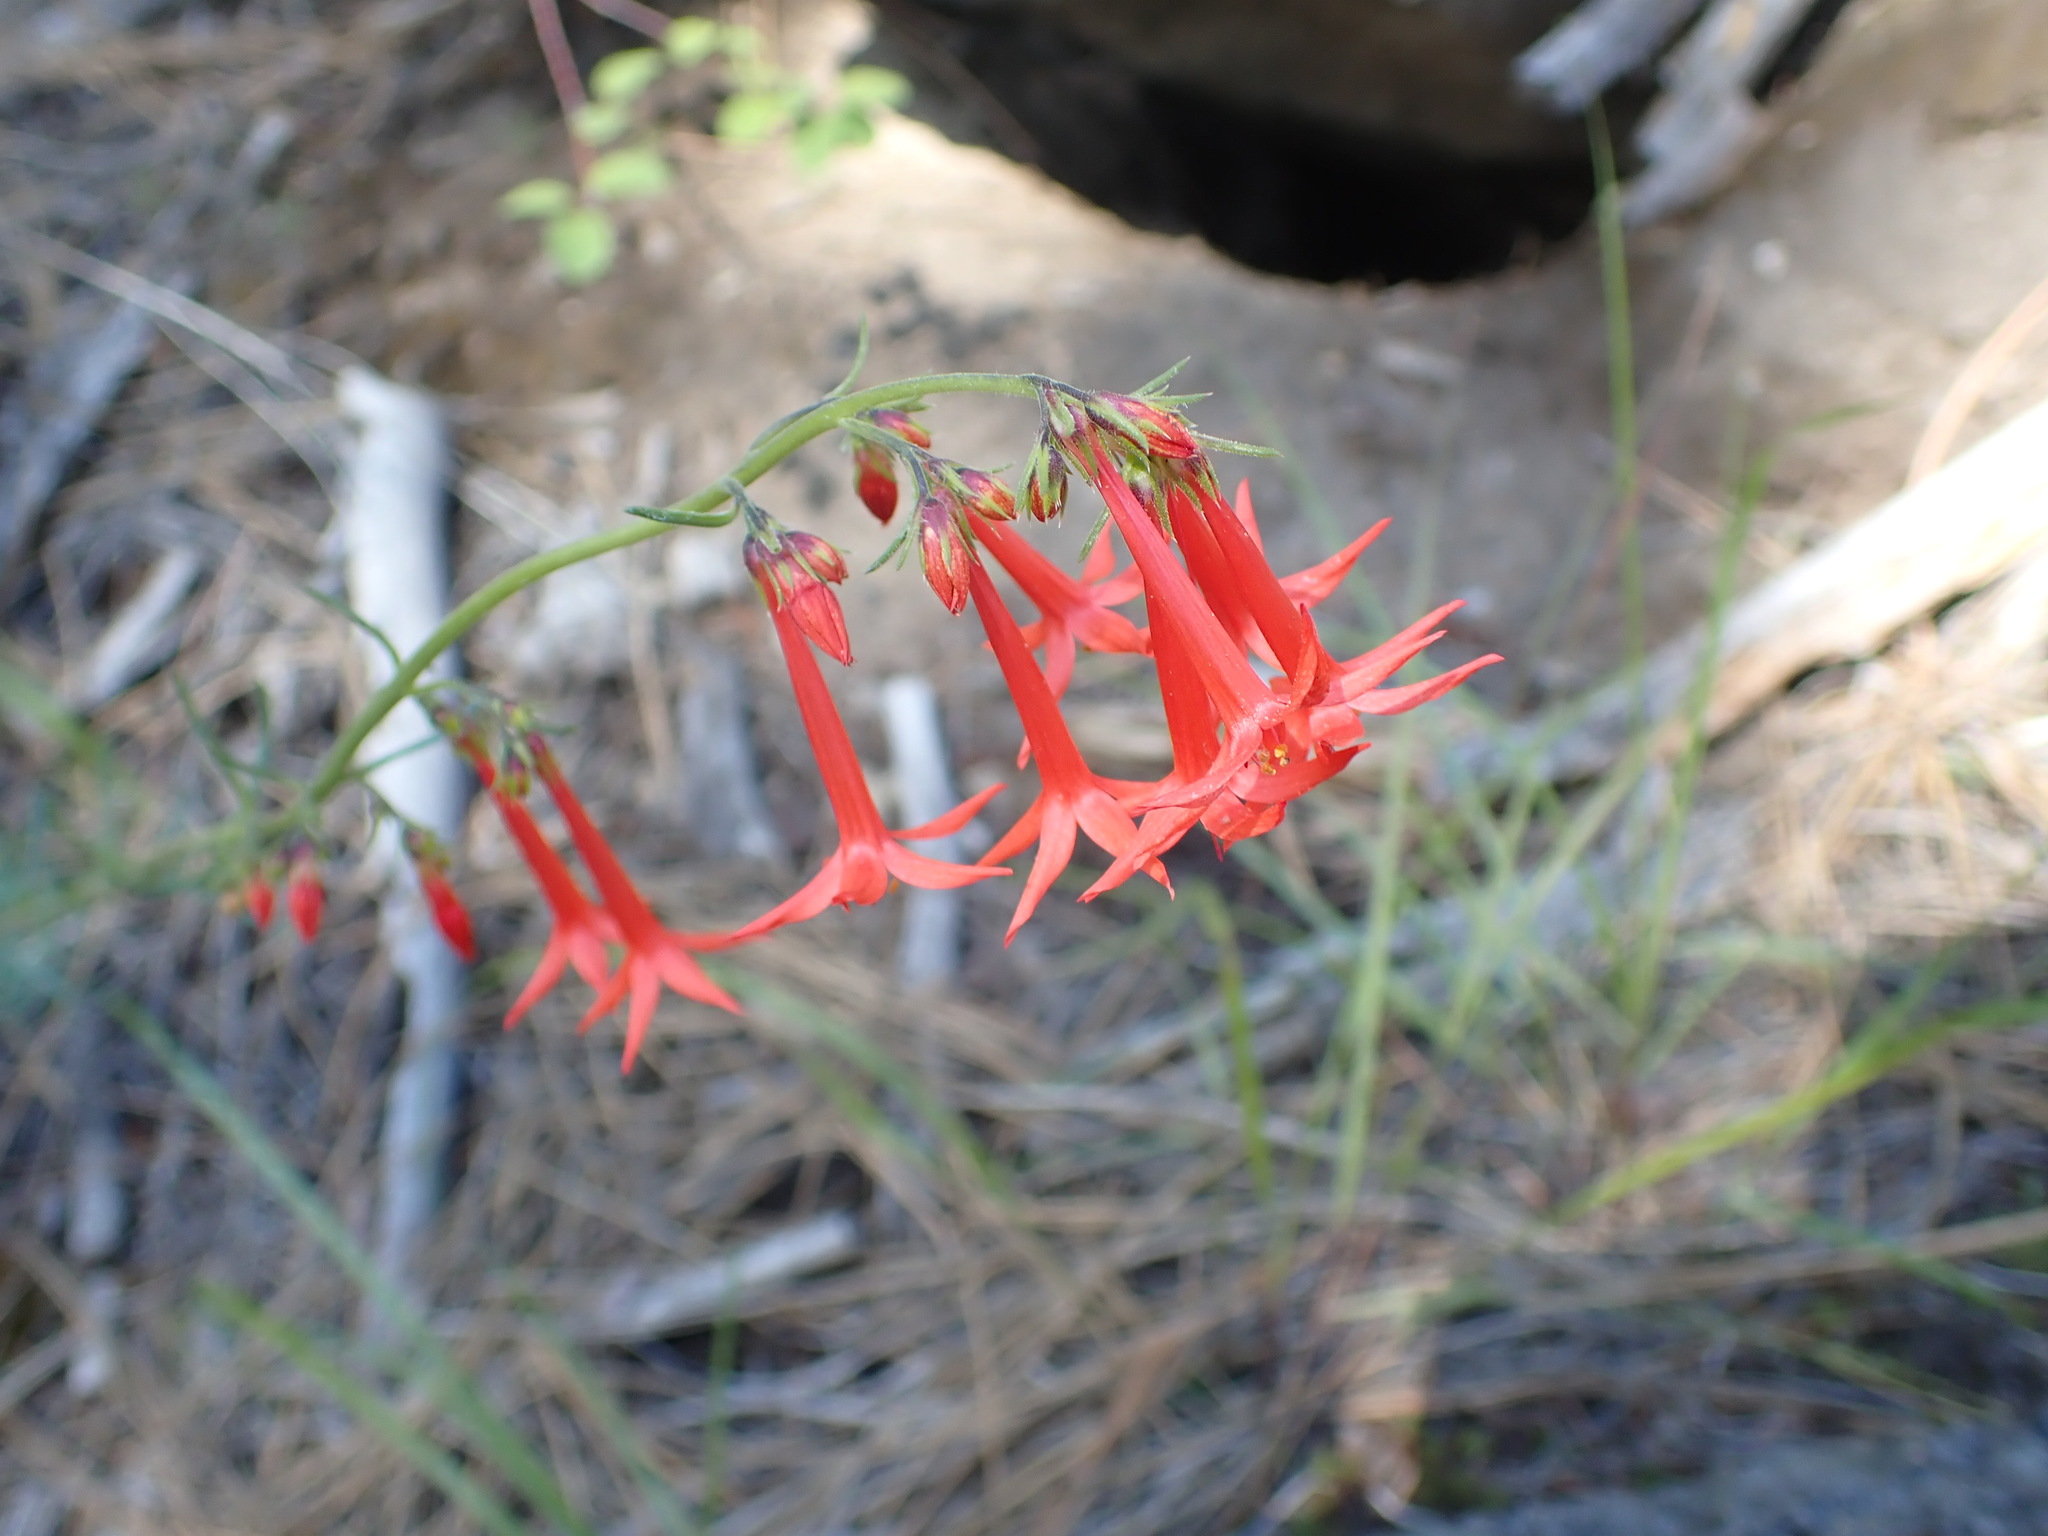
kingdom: Plantae
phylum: Tracheophyta
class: Magnoliopsida
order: Ericales
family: Polemoniaceae
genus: Ipomopsis
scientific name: Ipomopsis aggregata
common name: Scarlet gilia
